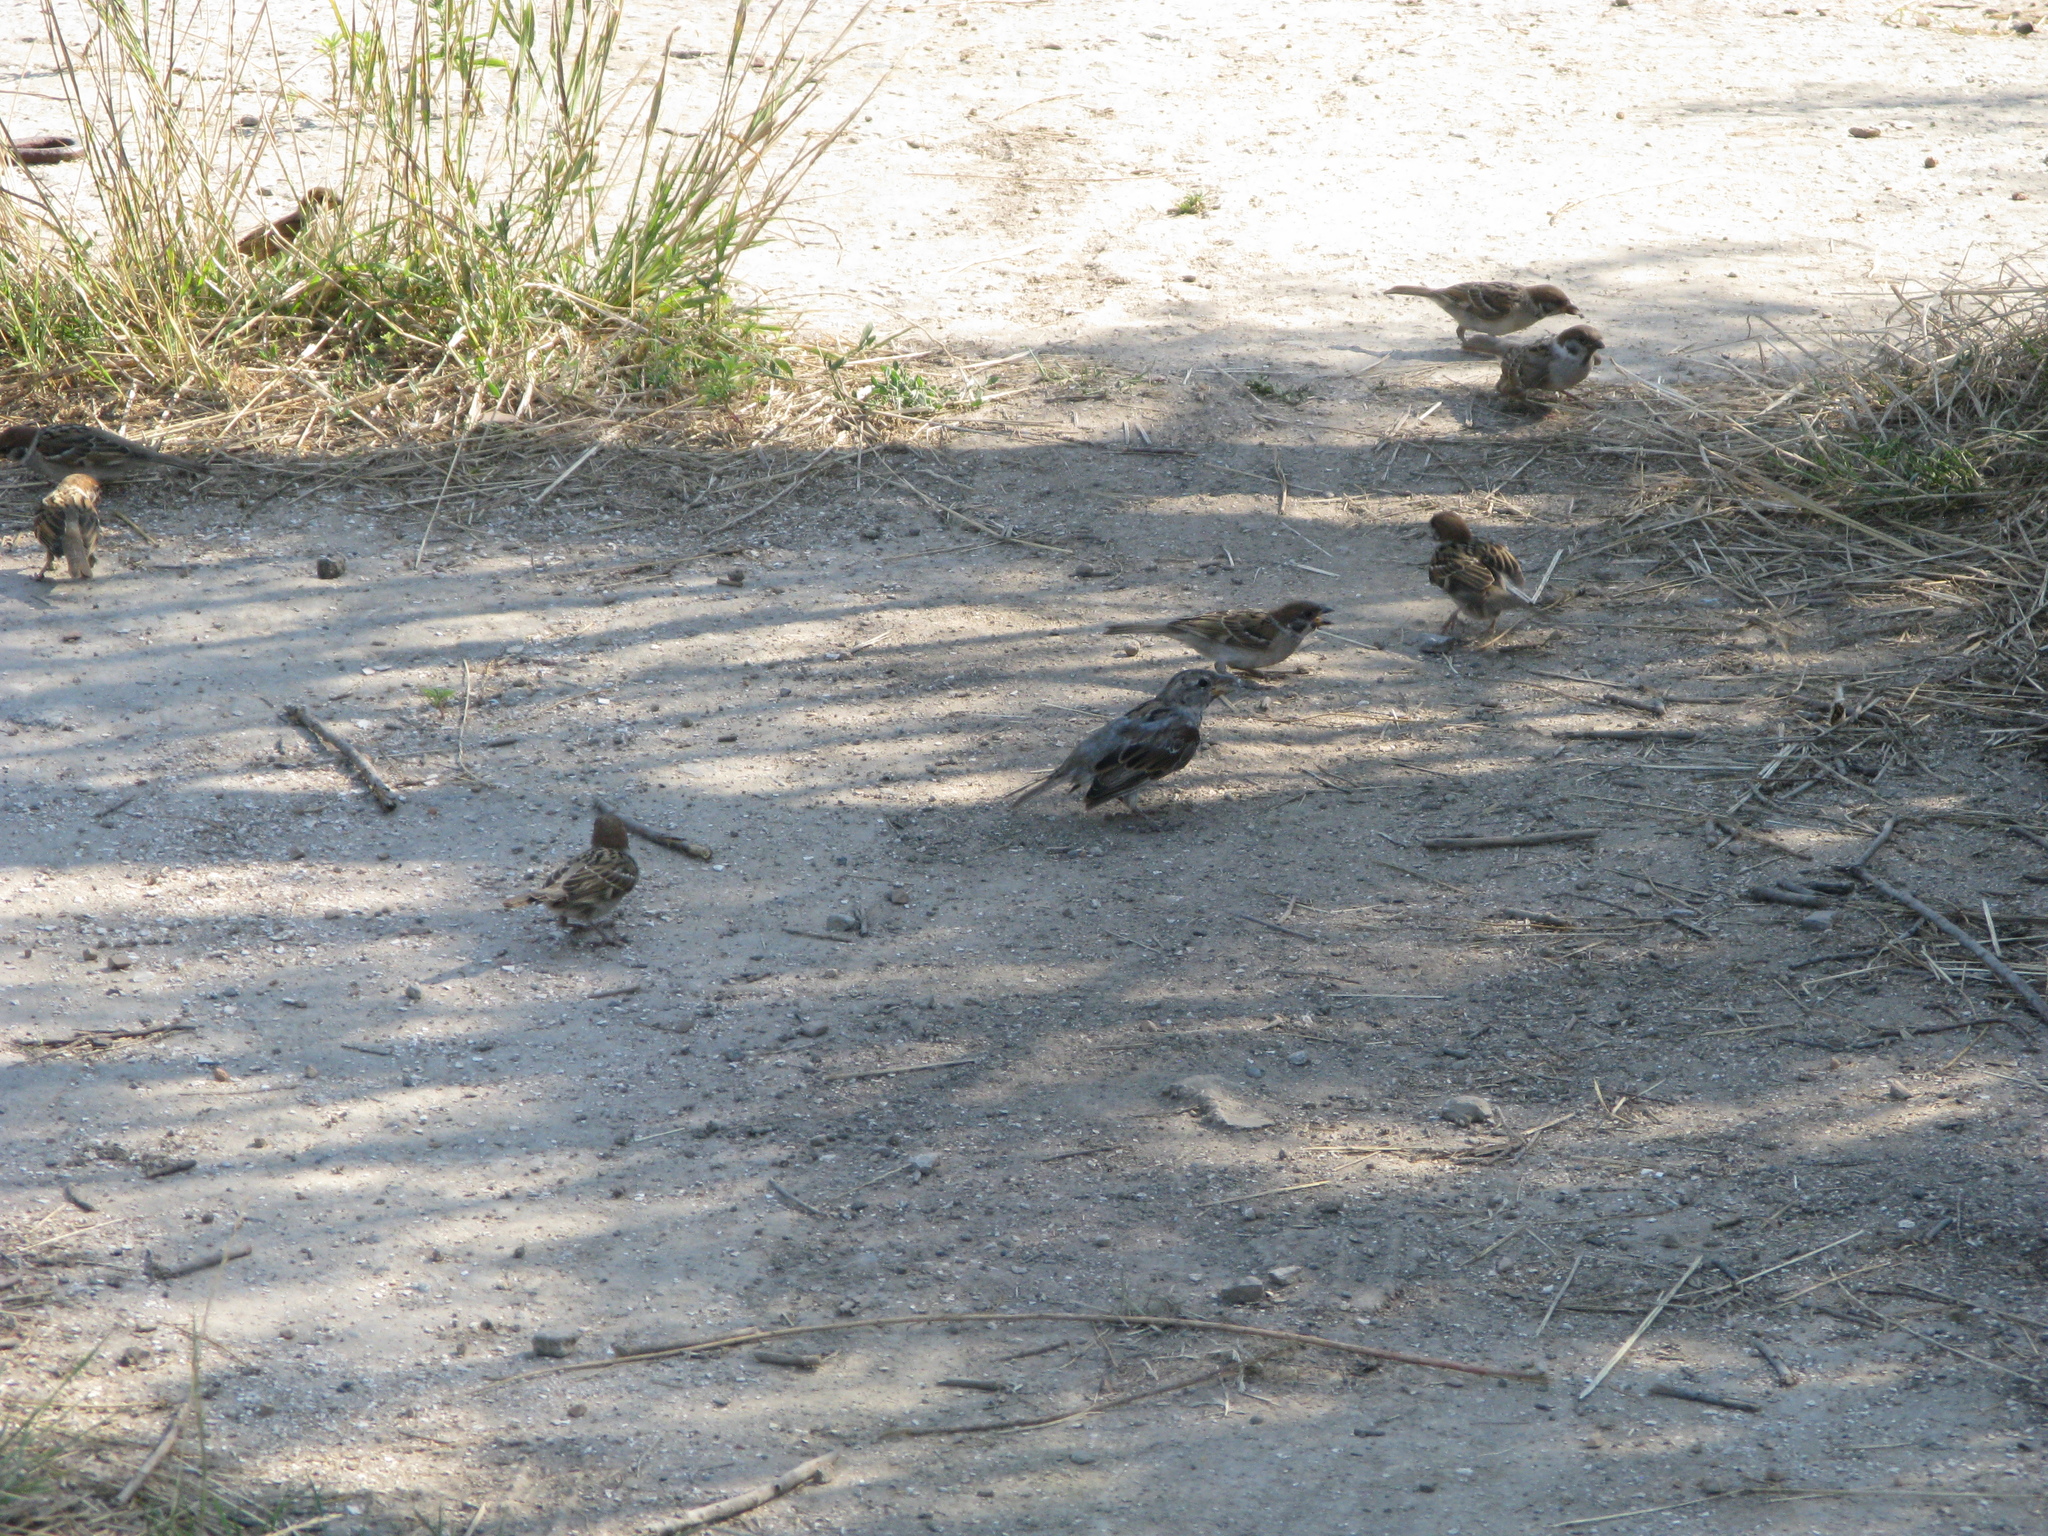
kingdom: Animalia
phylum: Chordata
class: Aves
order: Passeriformes
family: Passeridae
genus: Passer
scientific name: Passer montanus
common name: Eurasian tree sparrow
